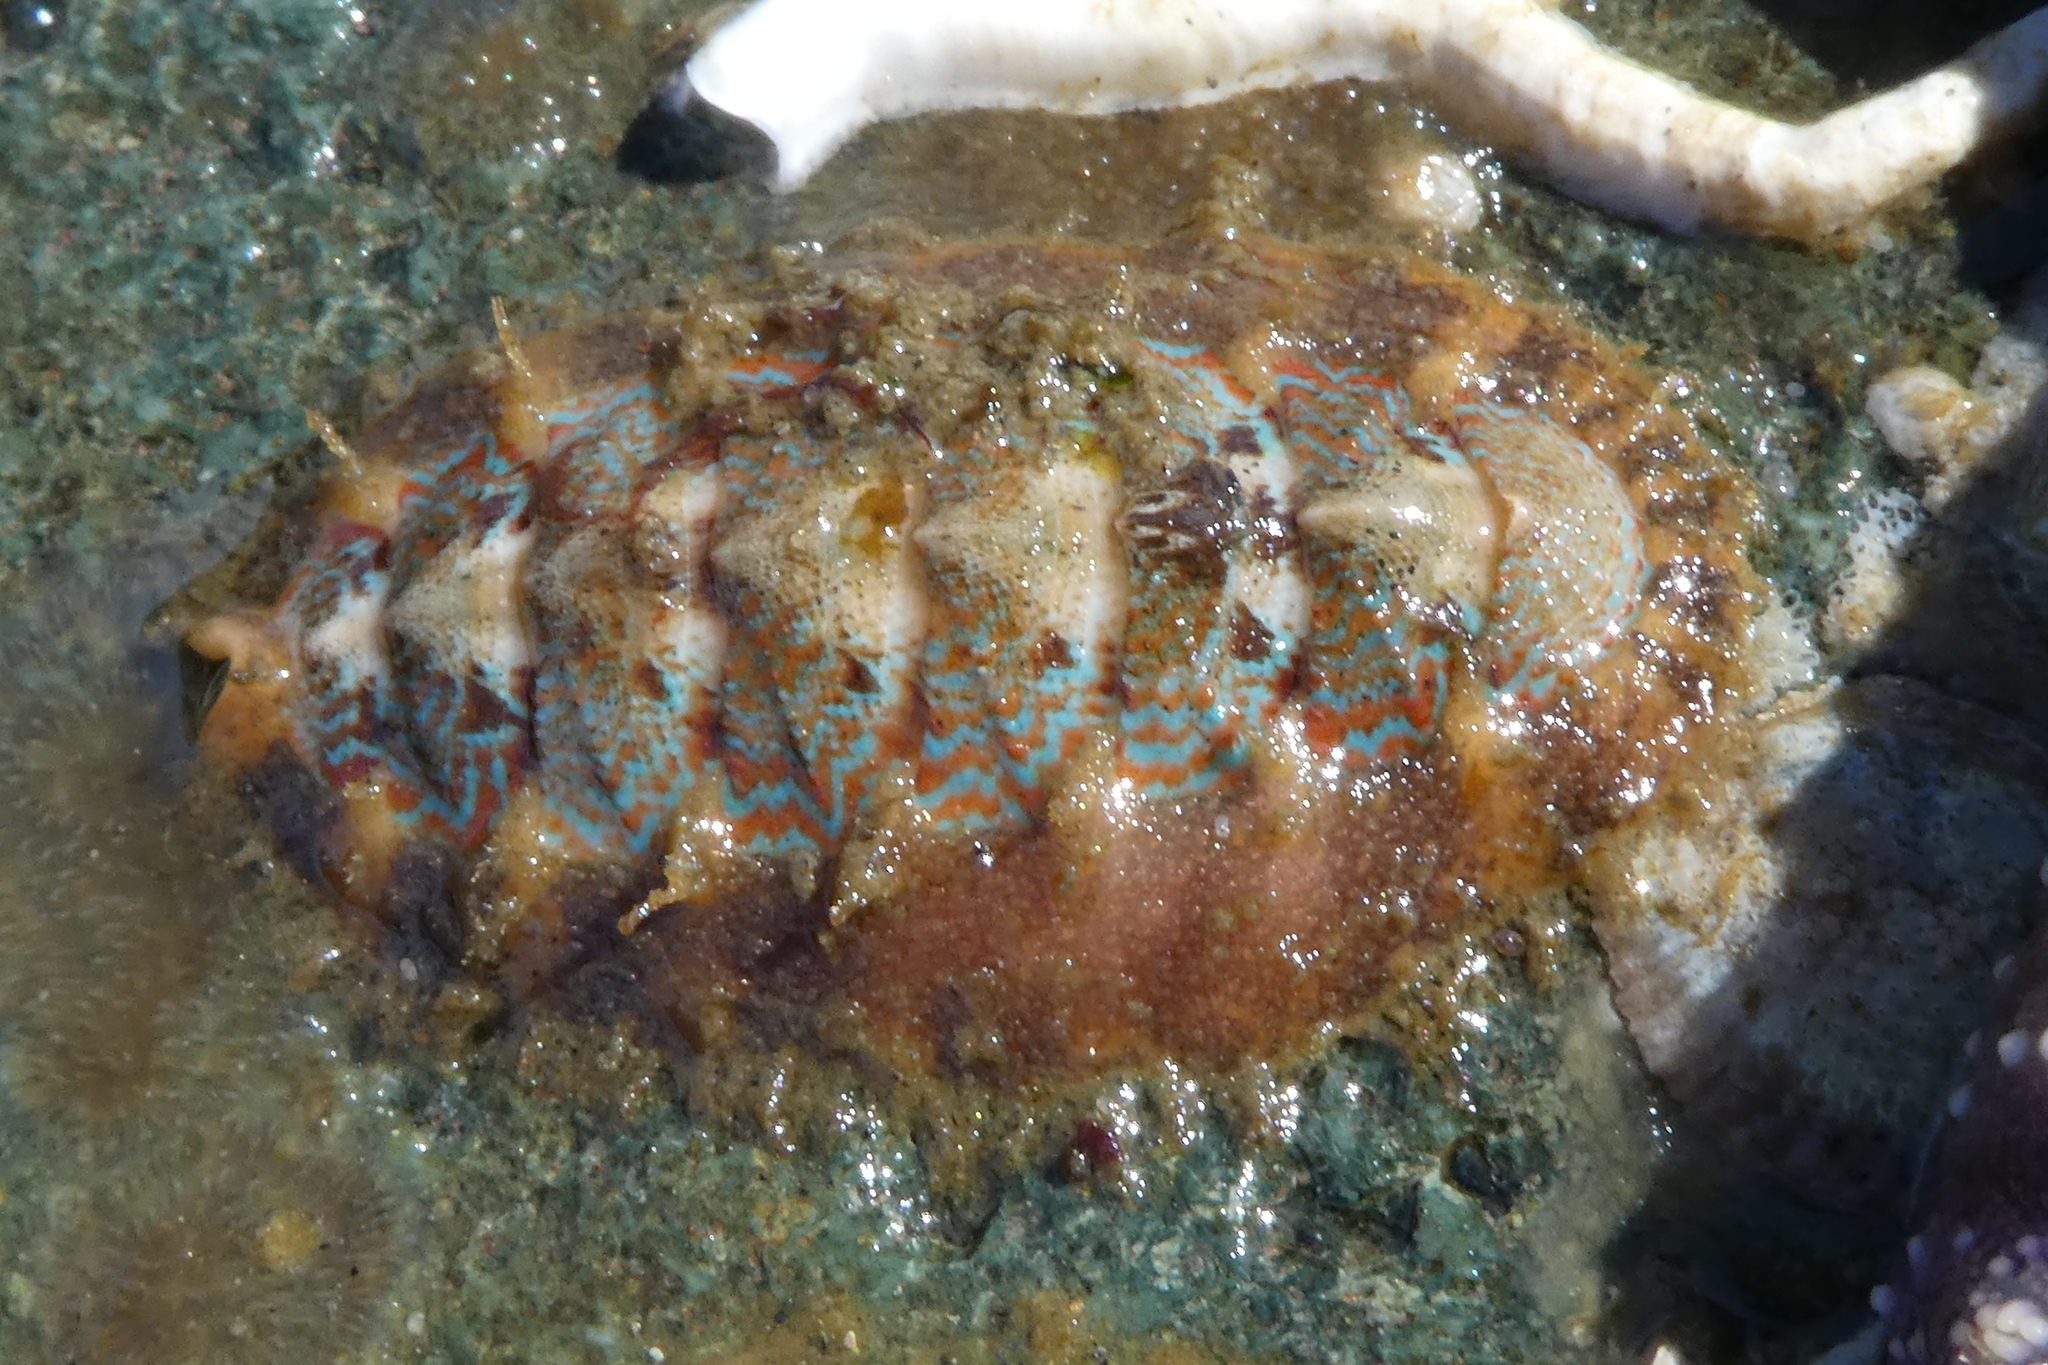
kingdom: Animalia
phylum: Mollusca
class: Polyplacophora
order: Chitonida
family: Mopaliidae
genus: Mopalia
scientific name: Mopalia spectabilis
